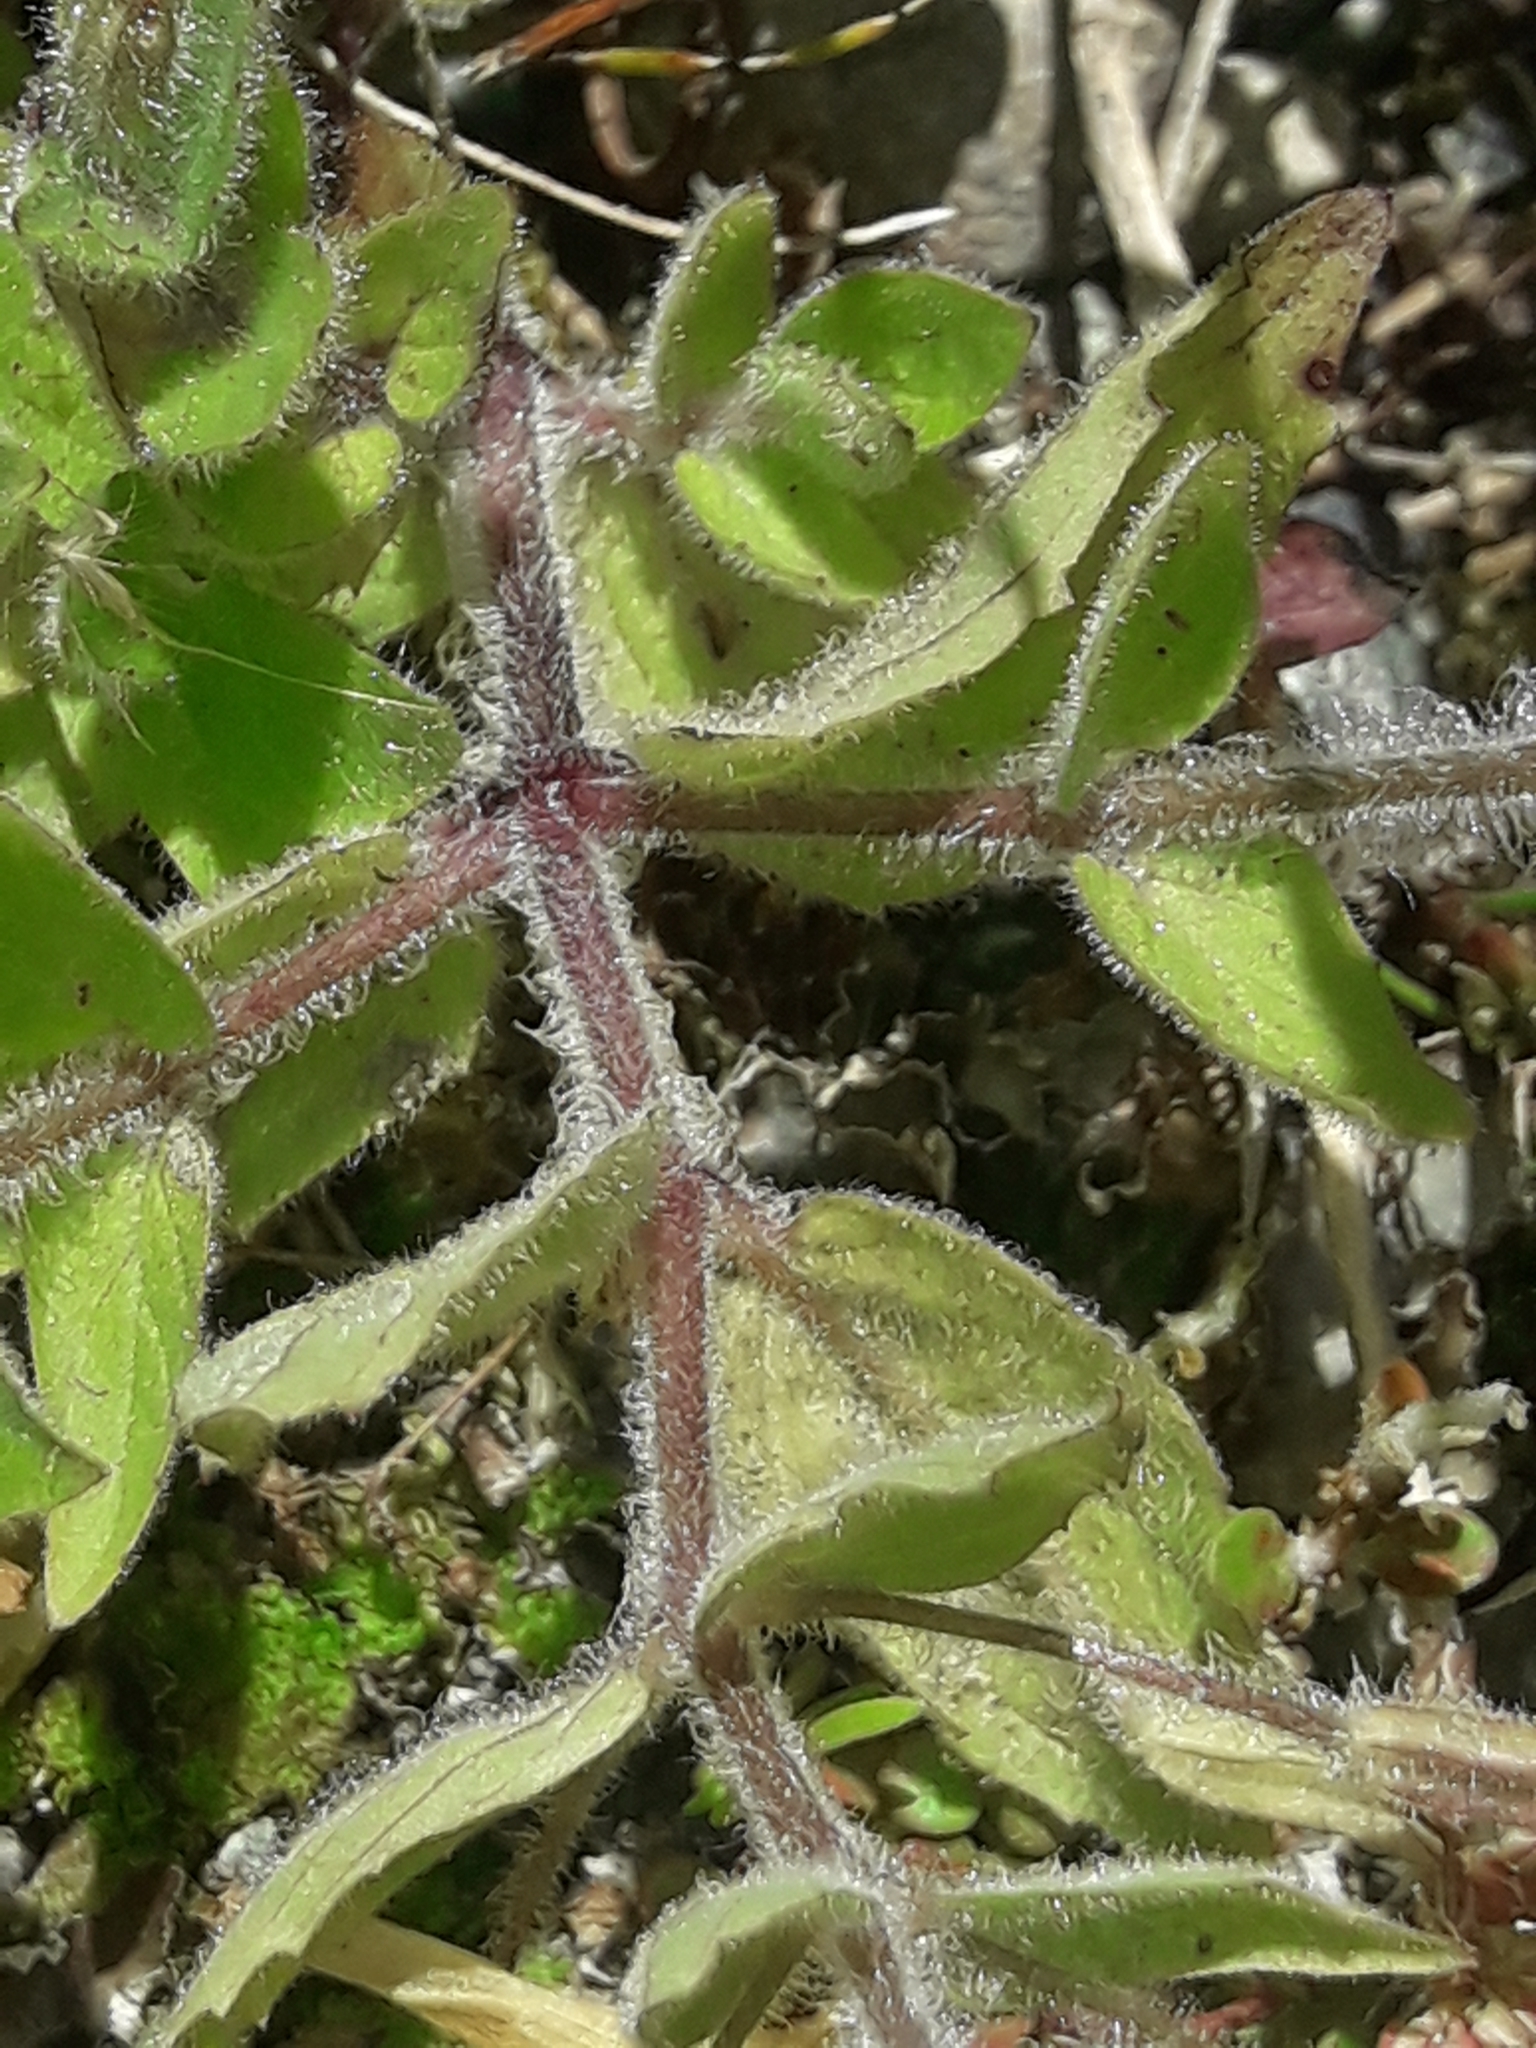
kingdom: Plantae
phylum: Tracheophyta
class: Magnoliopsida
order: Lamiales
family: Phrymaceae
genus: Erythranthe
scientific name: Erythranthe moschata
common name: Muskflower
